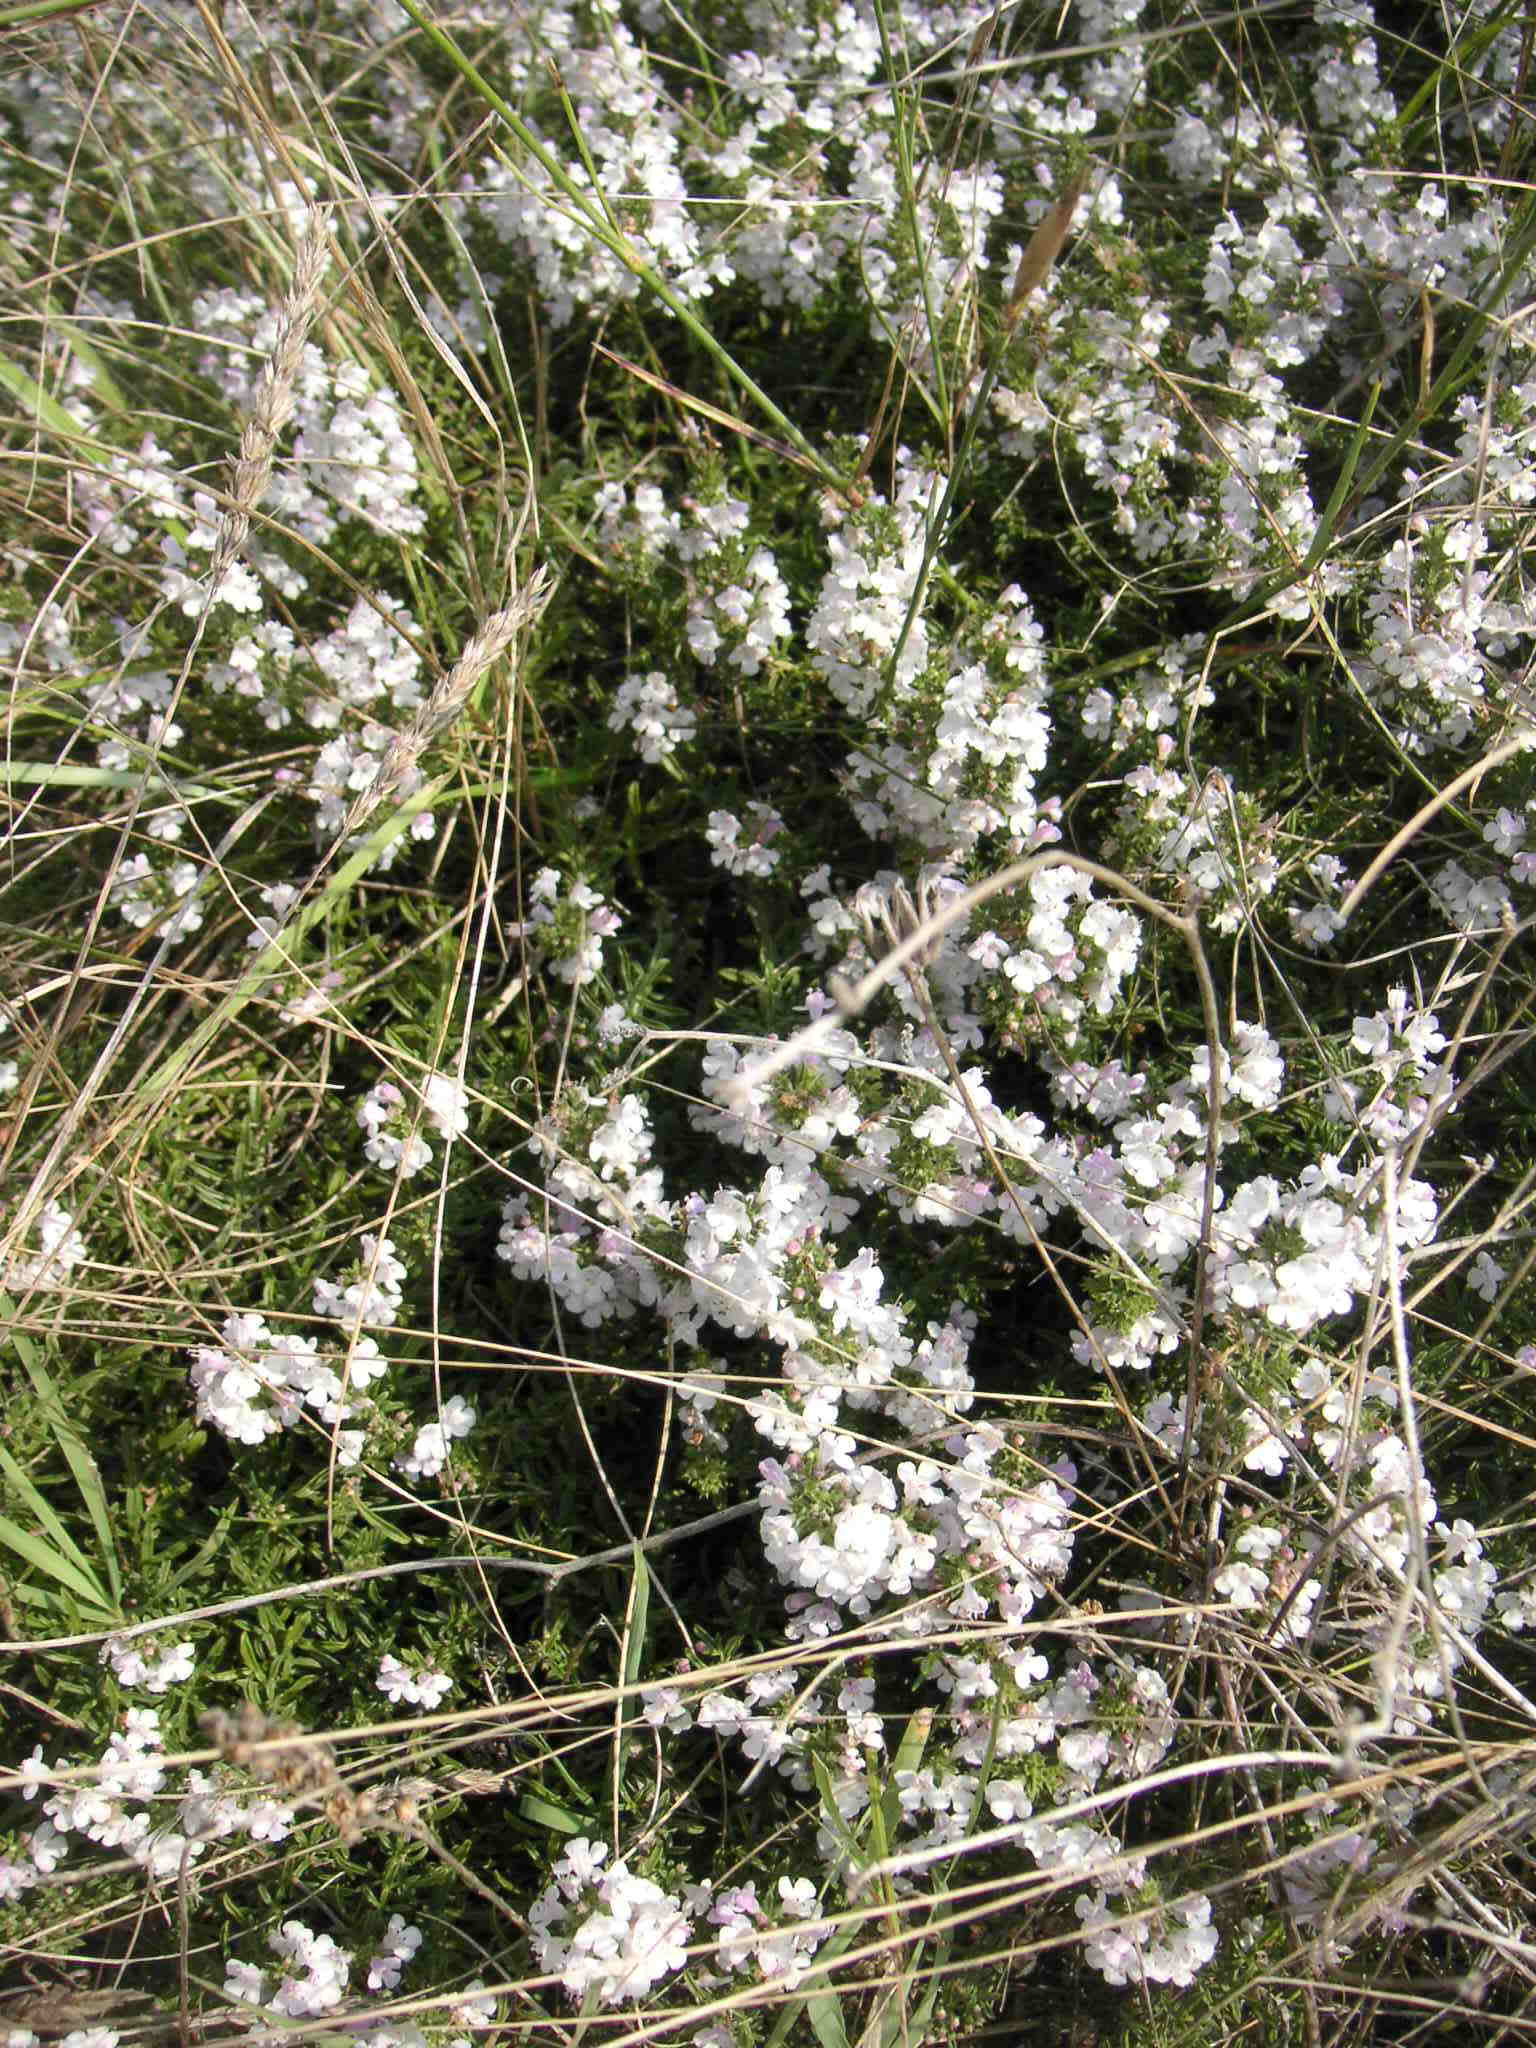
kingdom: Plantae
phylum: Tracheophyta
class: Magnoliopsida
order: Lamiales
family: Lamiaceae
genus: Satureja
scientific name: Satureja montana
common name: Winter savory
